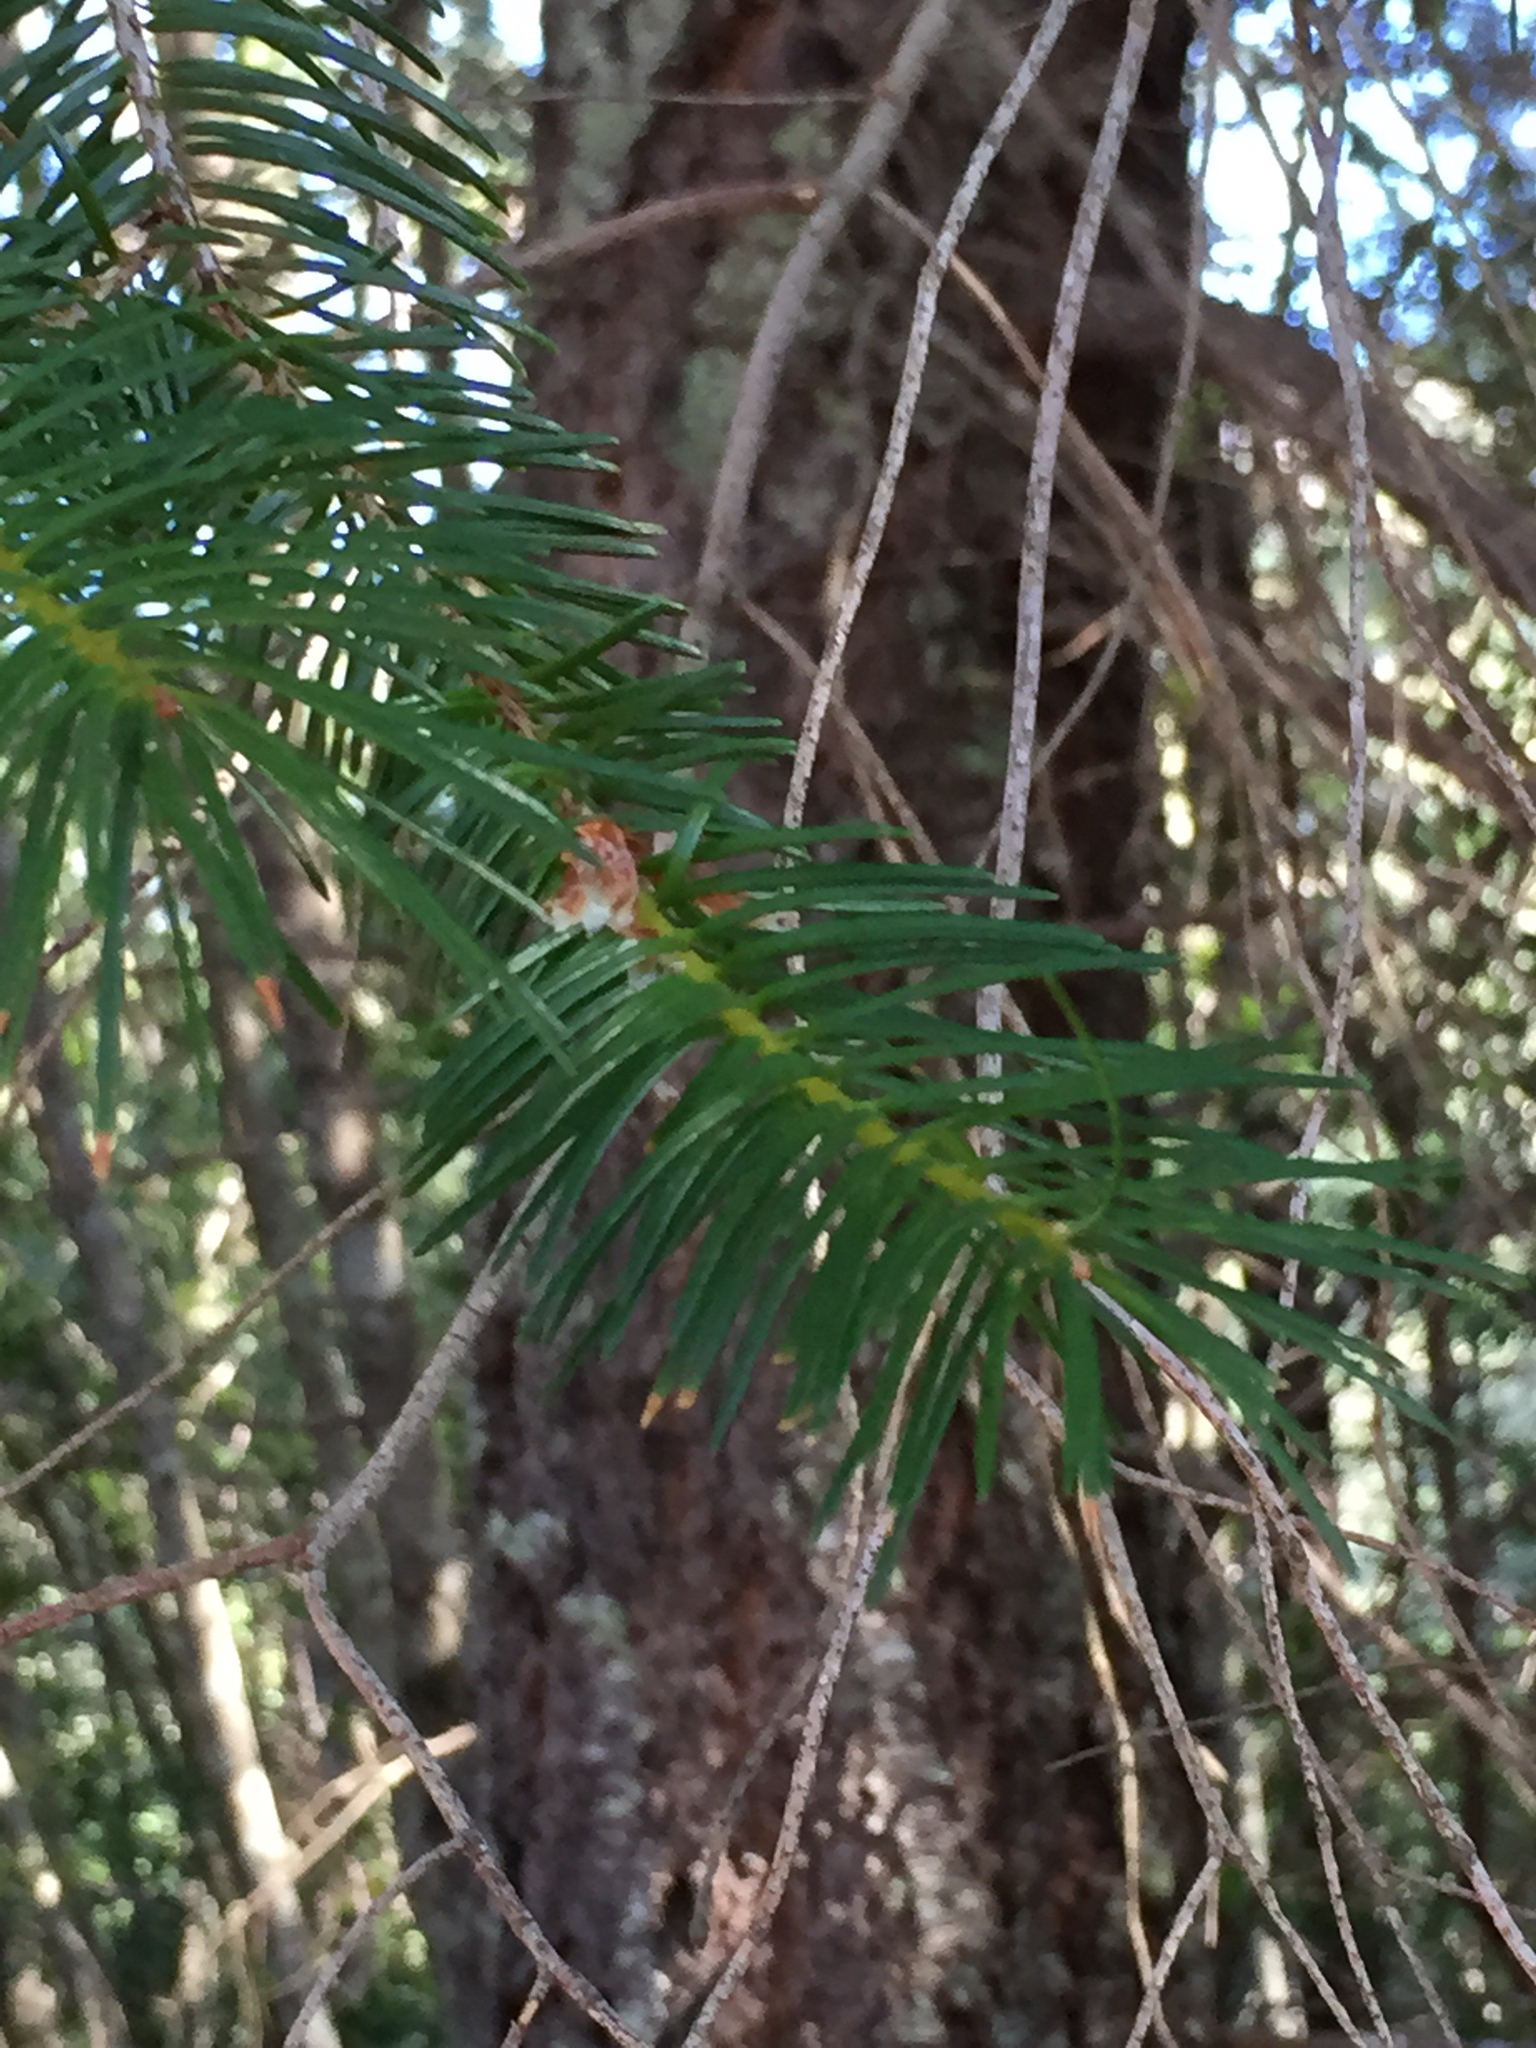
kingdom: Plantae
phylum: Tracheophyta
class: Pinopsida
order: Pinales
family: Pinaceae
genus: Pseudotsuga
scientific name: Pseudotsuga menziesii
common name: Douglas fir
